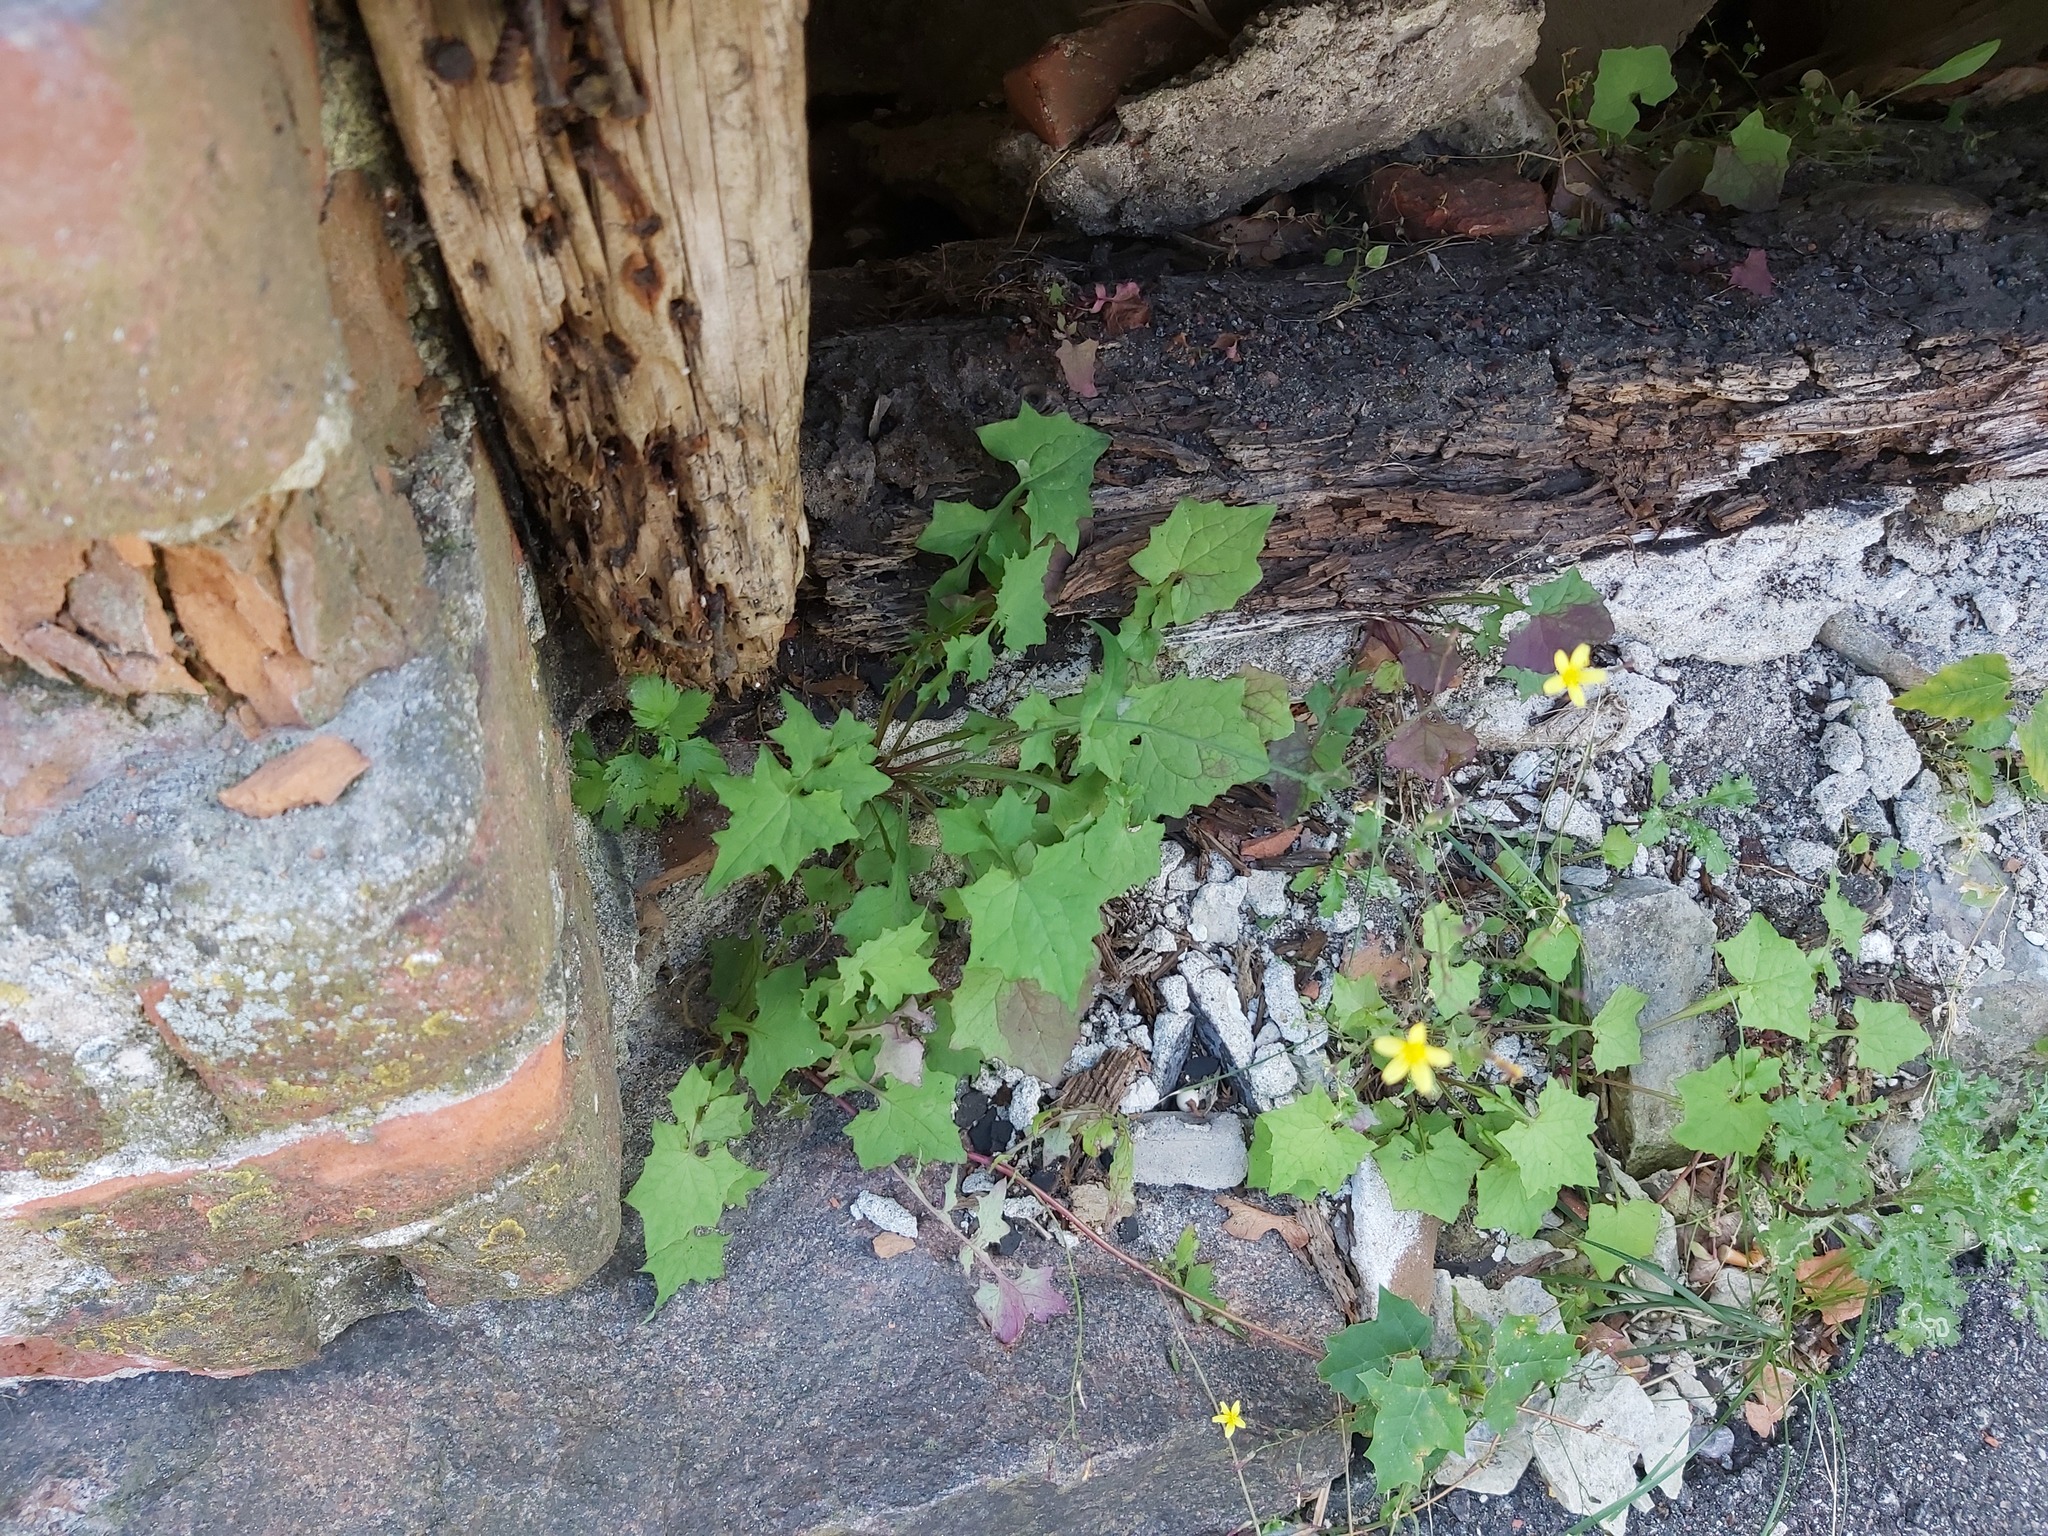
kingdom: Plantae
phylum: Tracheophyta
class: Magnoliopsida
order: Asterales
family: Asteraceae
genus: Mycelis
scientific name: Mycelis muralis
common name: Wall lettuce
